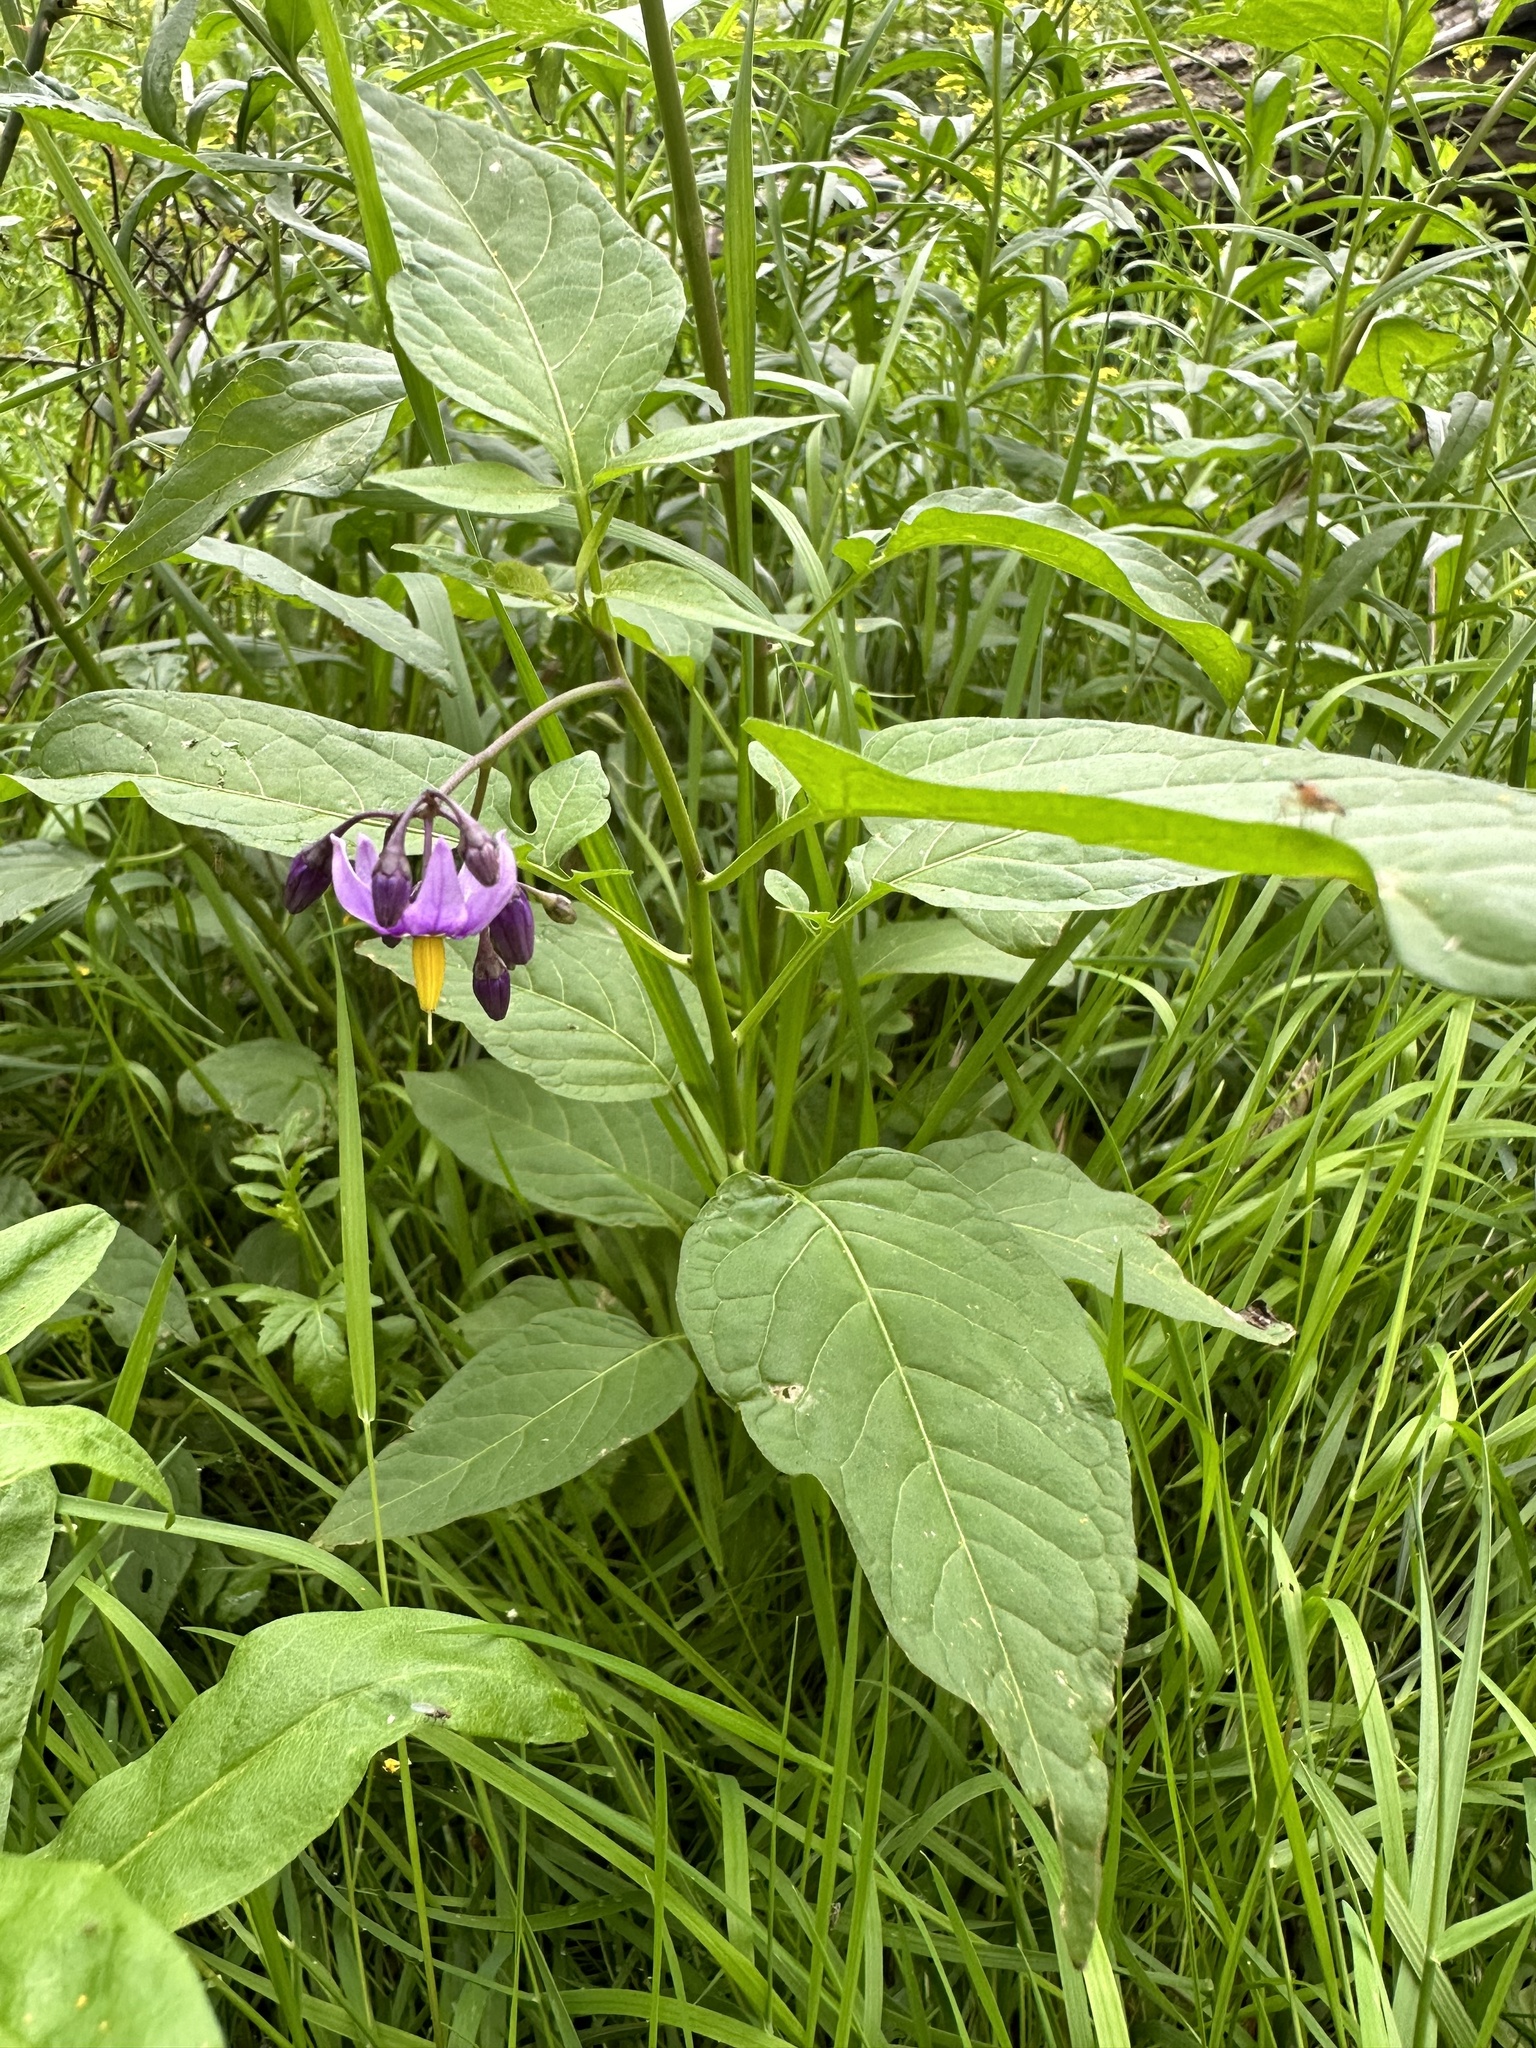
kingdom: Plantae
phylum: Tracheophyta
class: Magnoliopsida
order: Solanales
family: Solanaceae
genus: Solanum
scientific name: Solanum dulcamara
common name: Climbing nightshade
